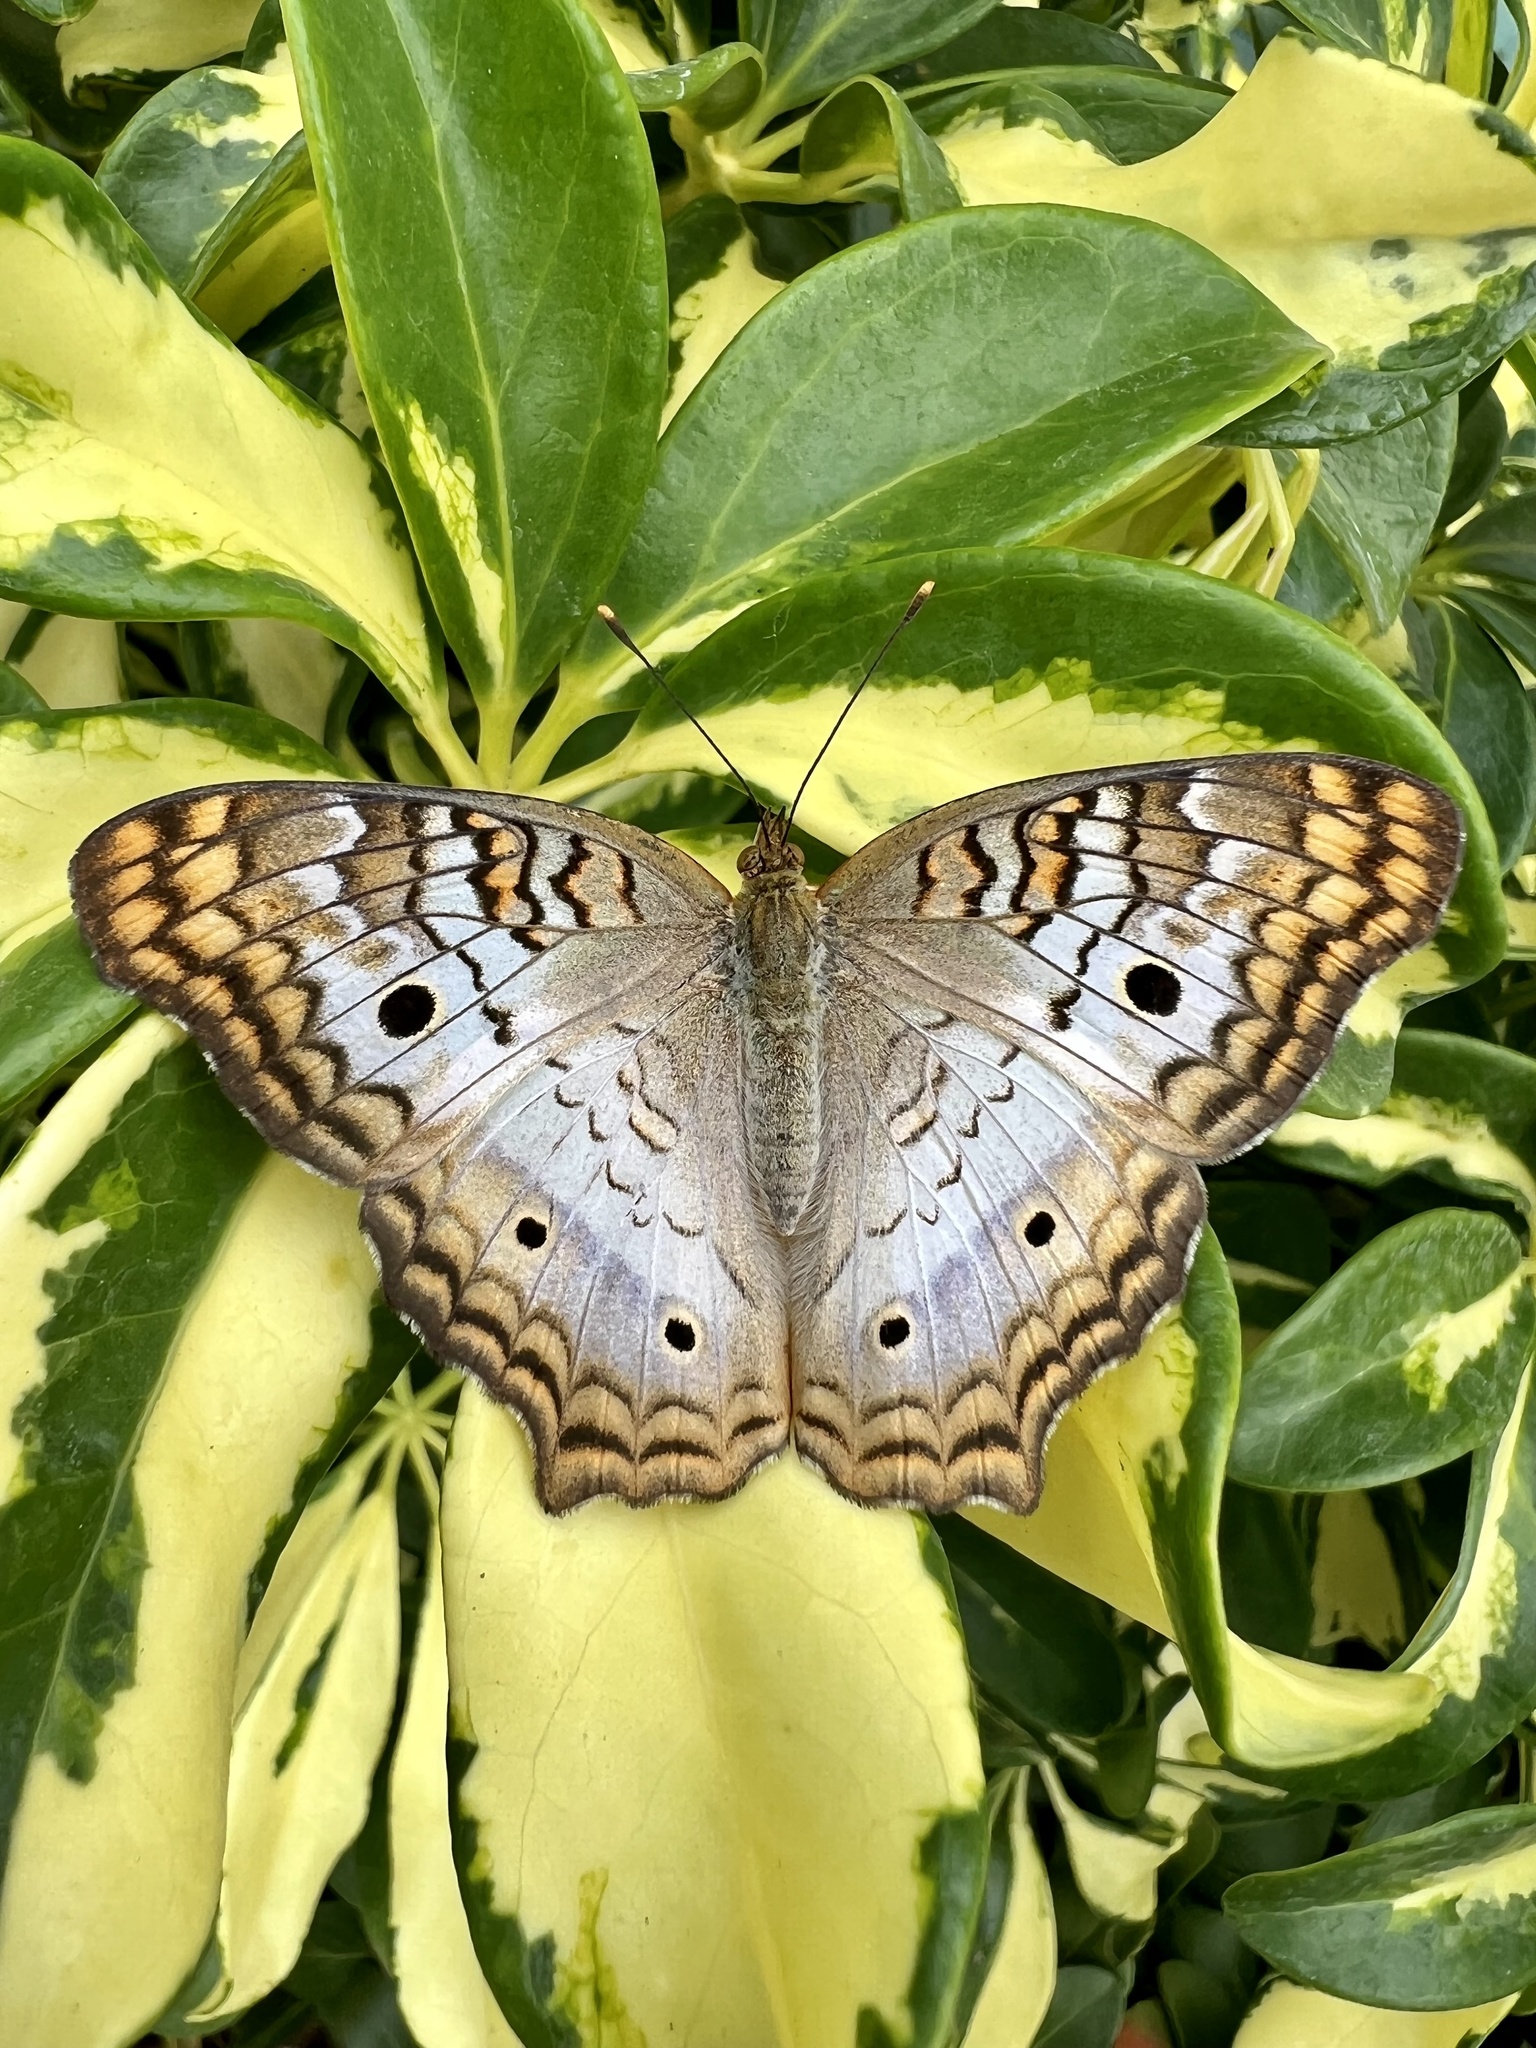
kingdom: Animalia
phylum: Arthropoda
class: Insecta
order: Lepidoptera
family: Nymphalidae
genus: Anartia
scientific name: Anartia jatrophae
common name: White peacock
